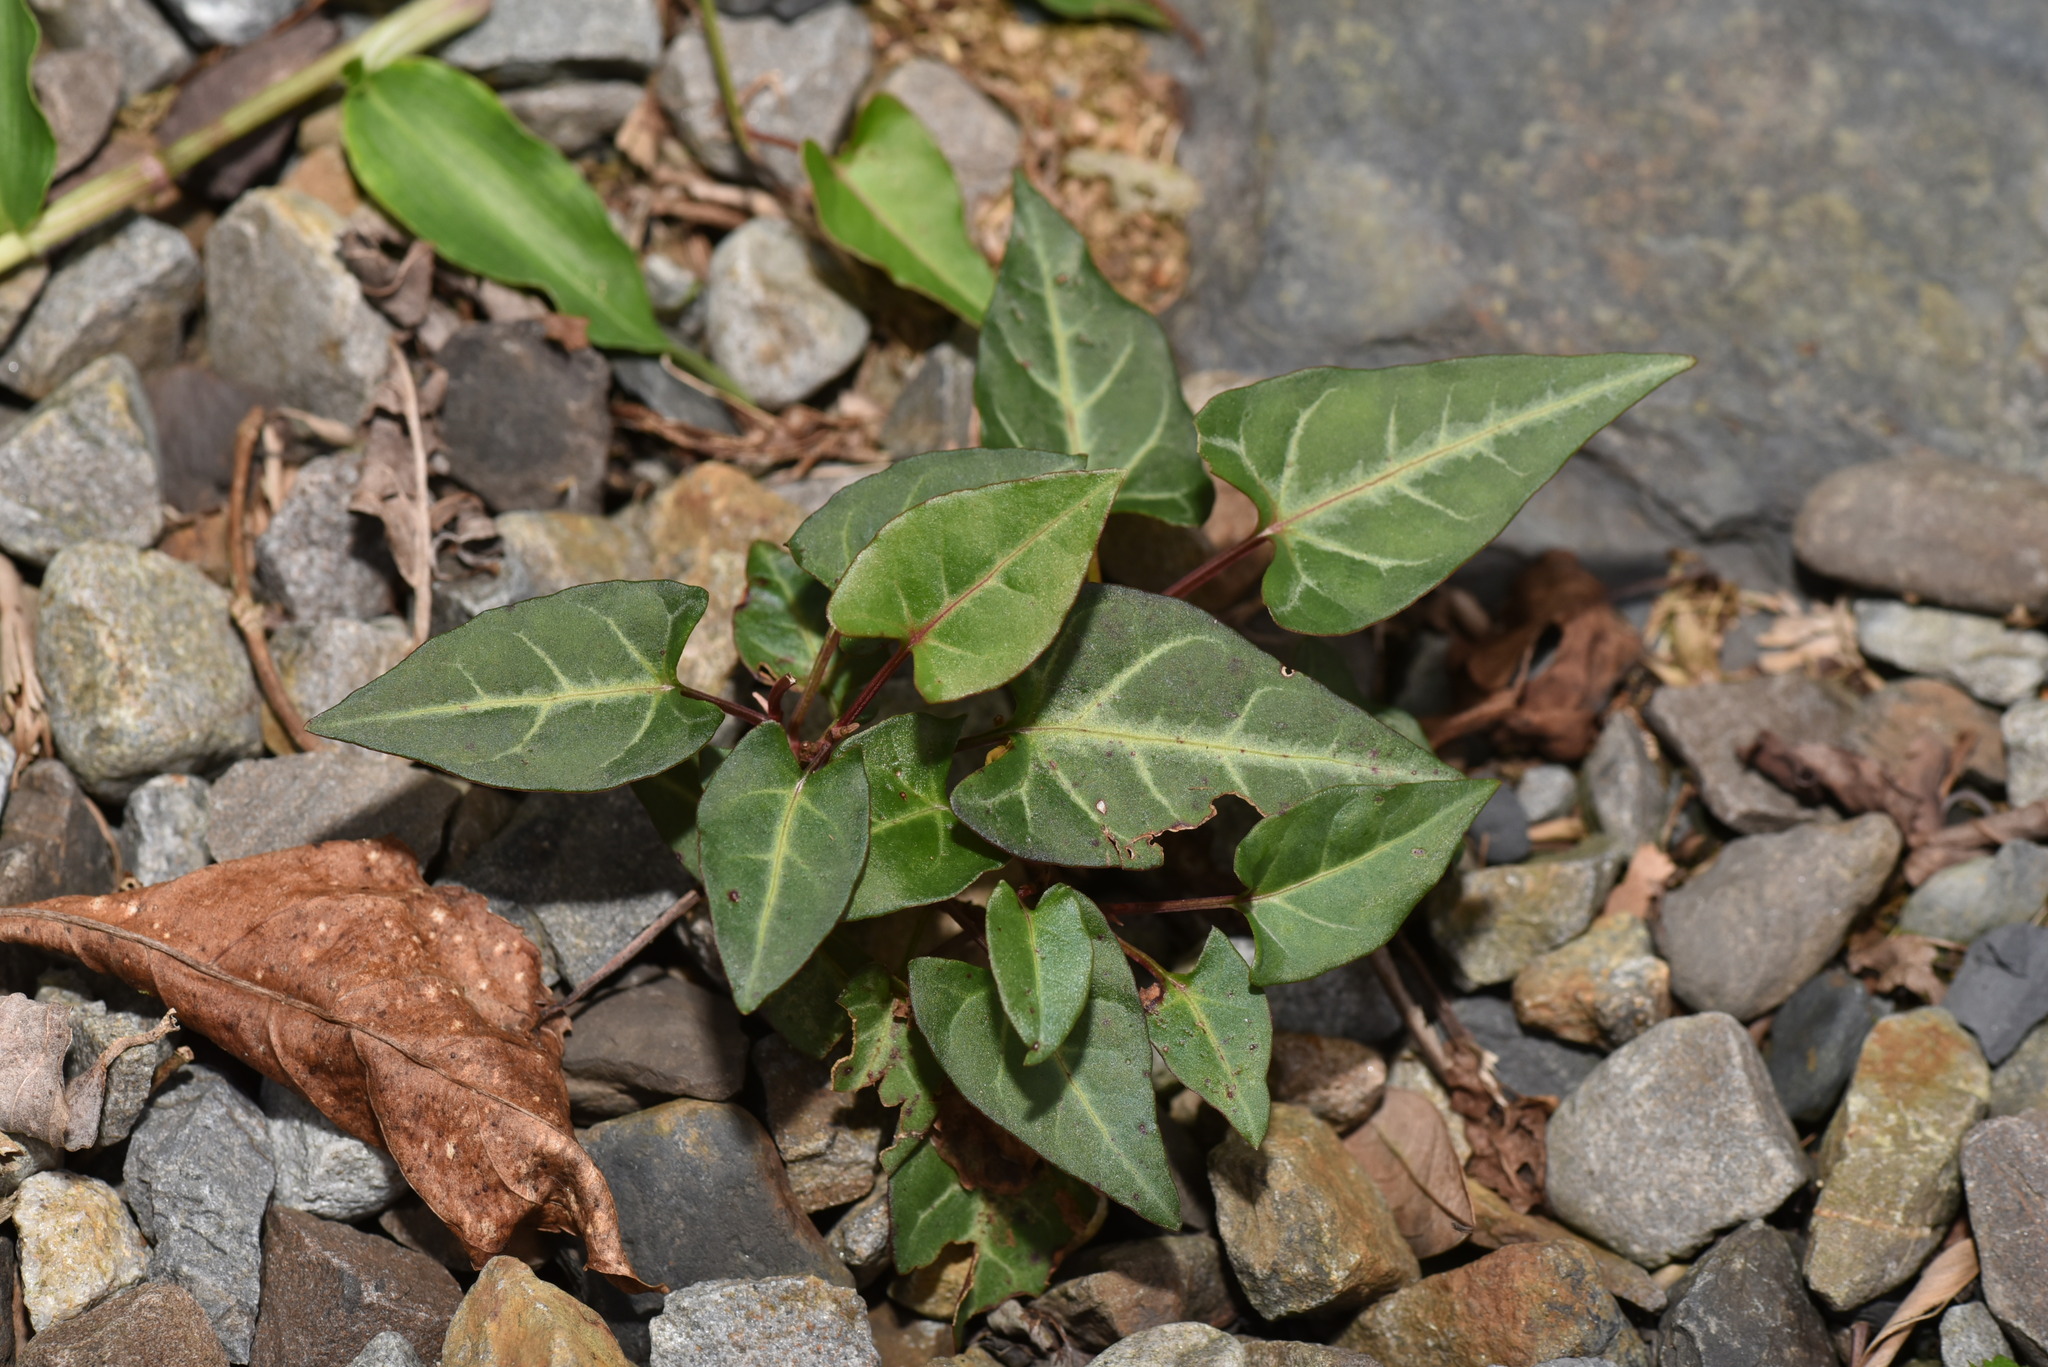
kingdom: Plantae
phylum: Tracheophyta
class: Magnoliopsida
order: Caryophyllales
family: Polygonaceae
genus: Reynoutria
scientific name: Reynoutria multiflora
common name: Chinese fleeceflower
